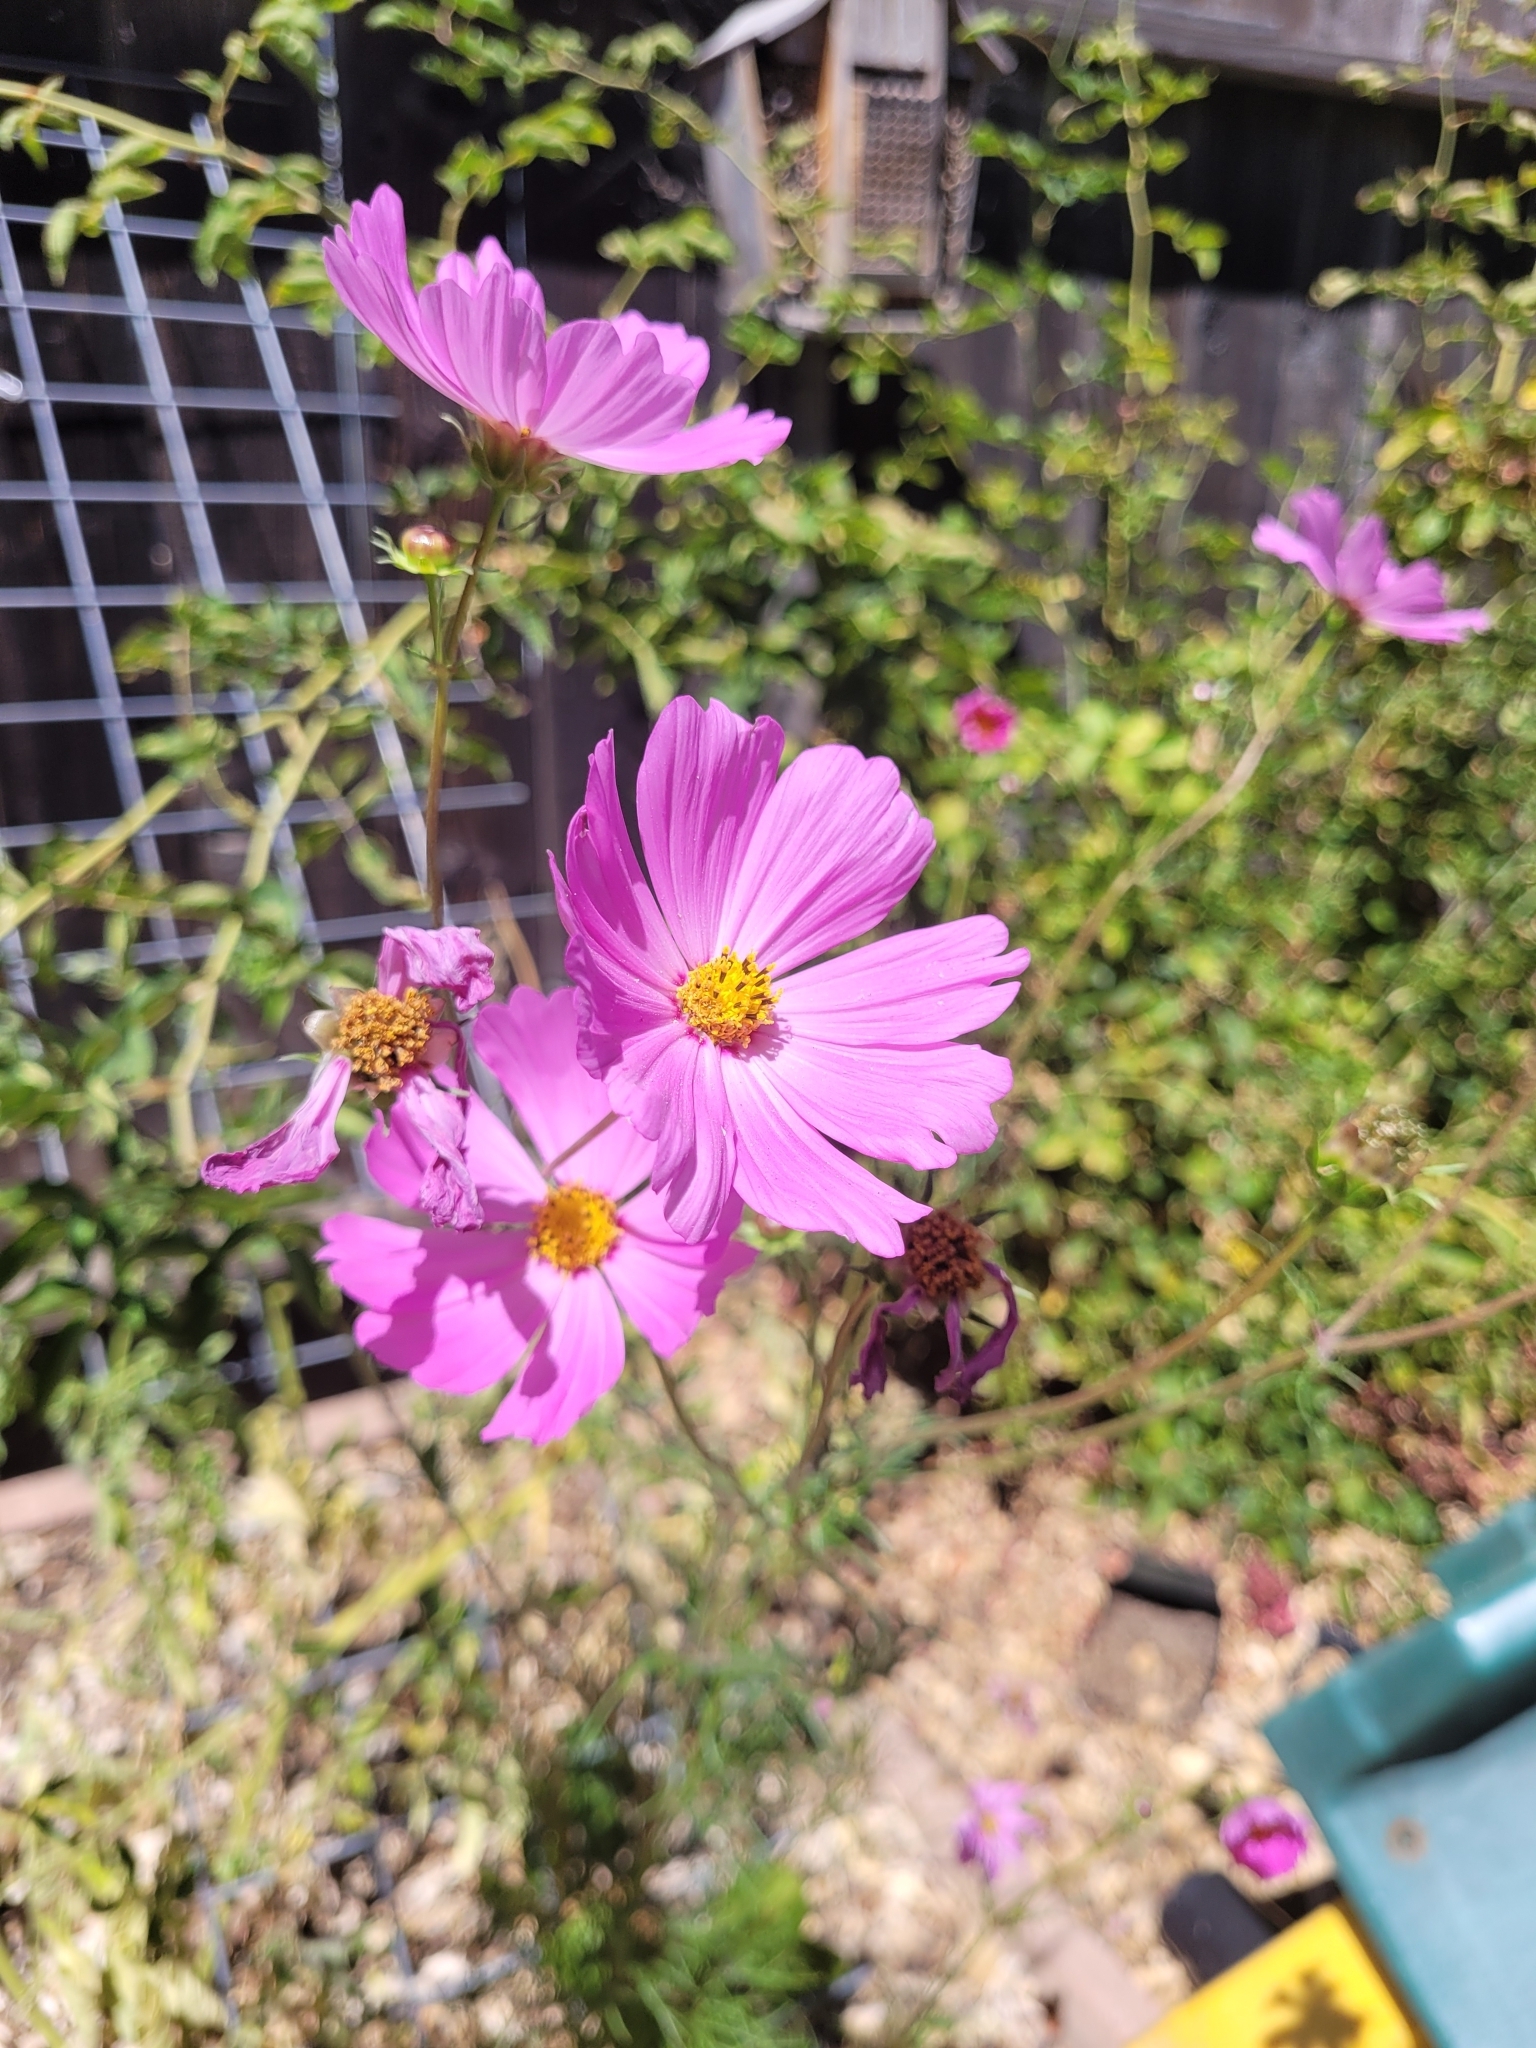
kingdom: Plantae
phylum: Tracheophyta
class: Magnoliopsida
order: Asterales
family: Asteraceae
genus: Cosmos
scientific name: Cosmos bipinnatus
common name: Garden cosmos
